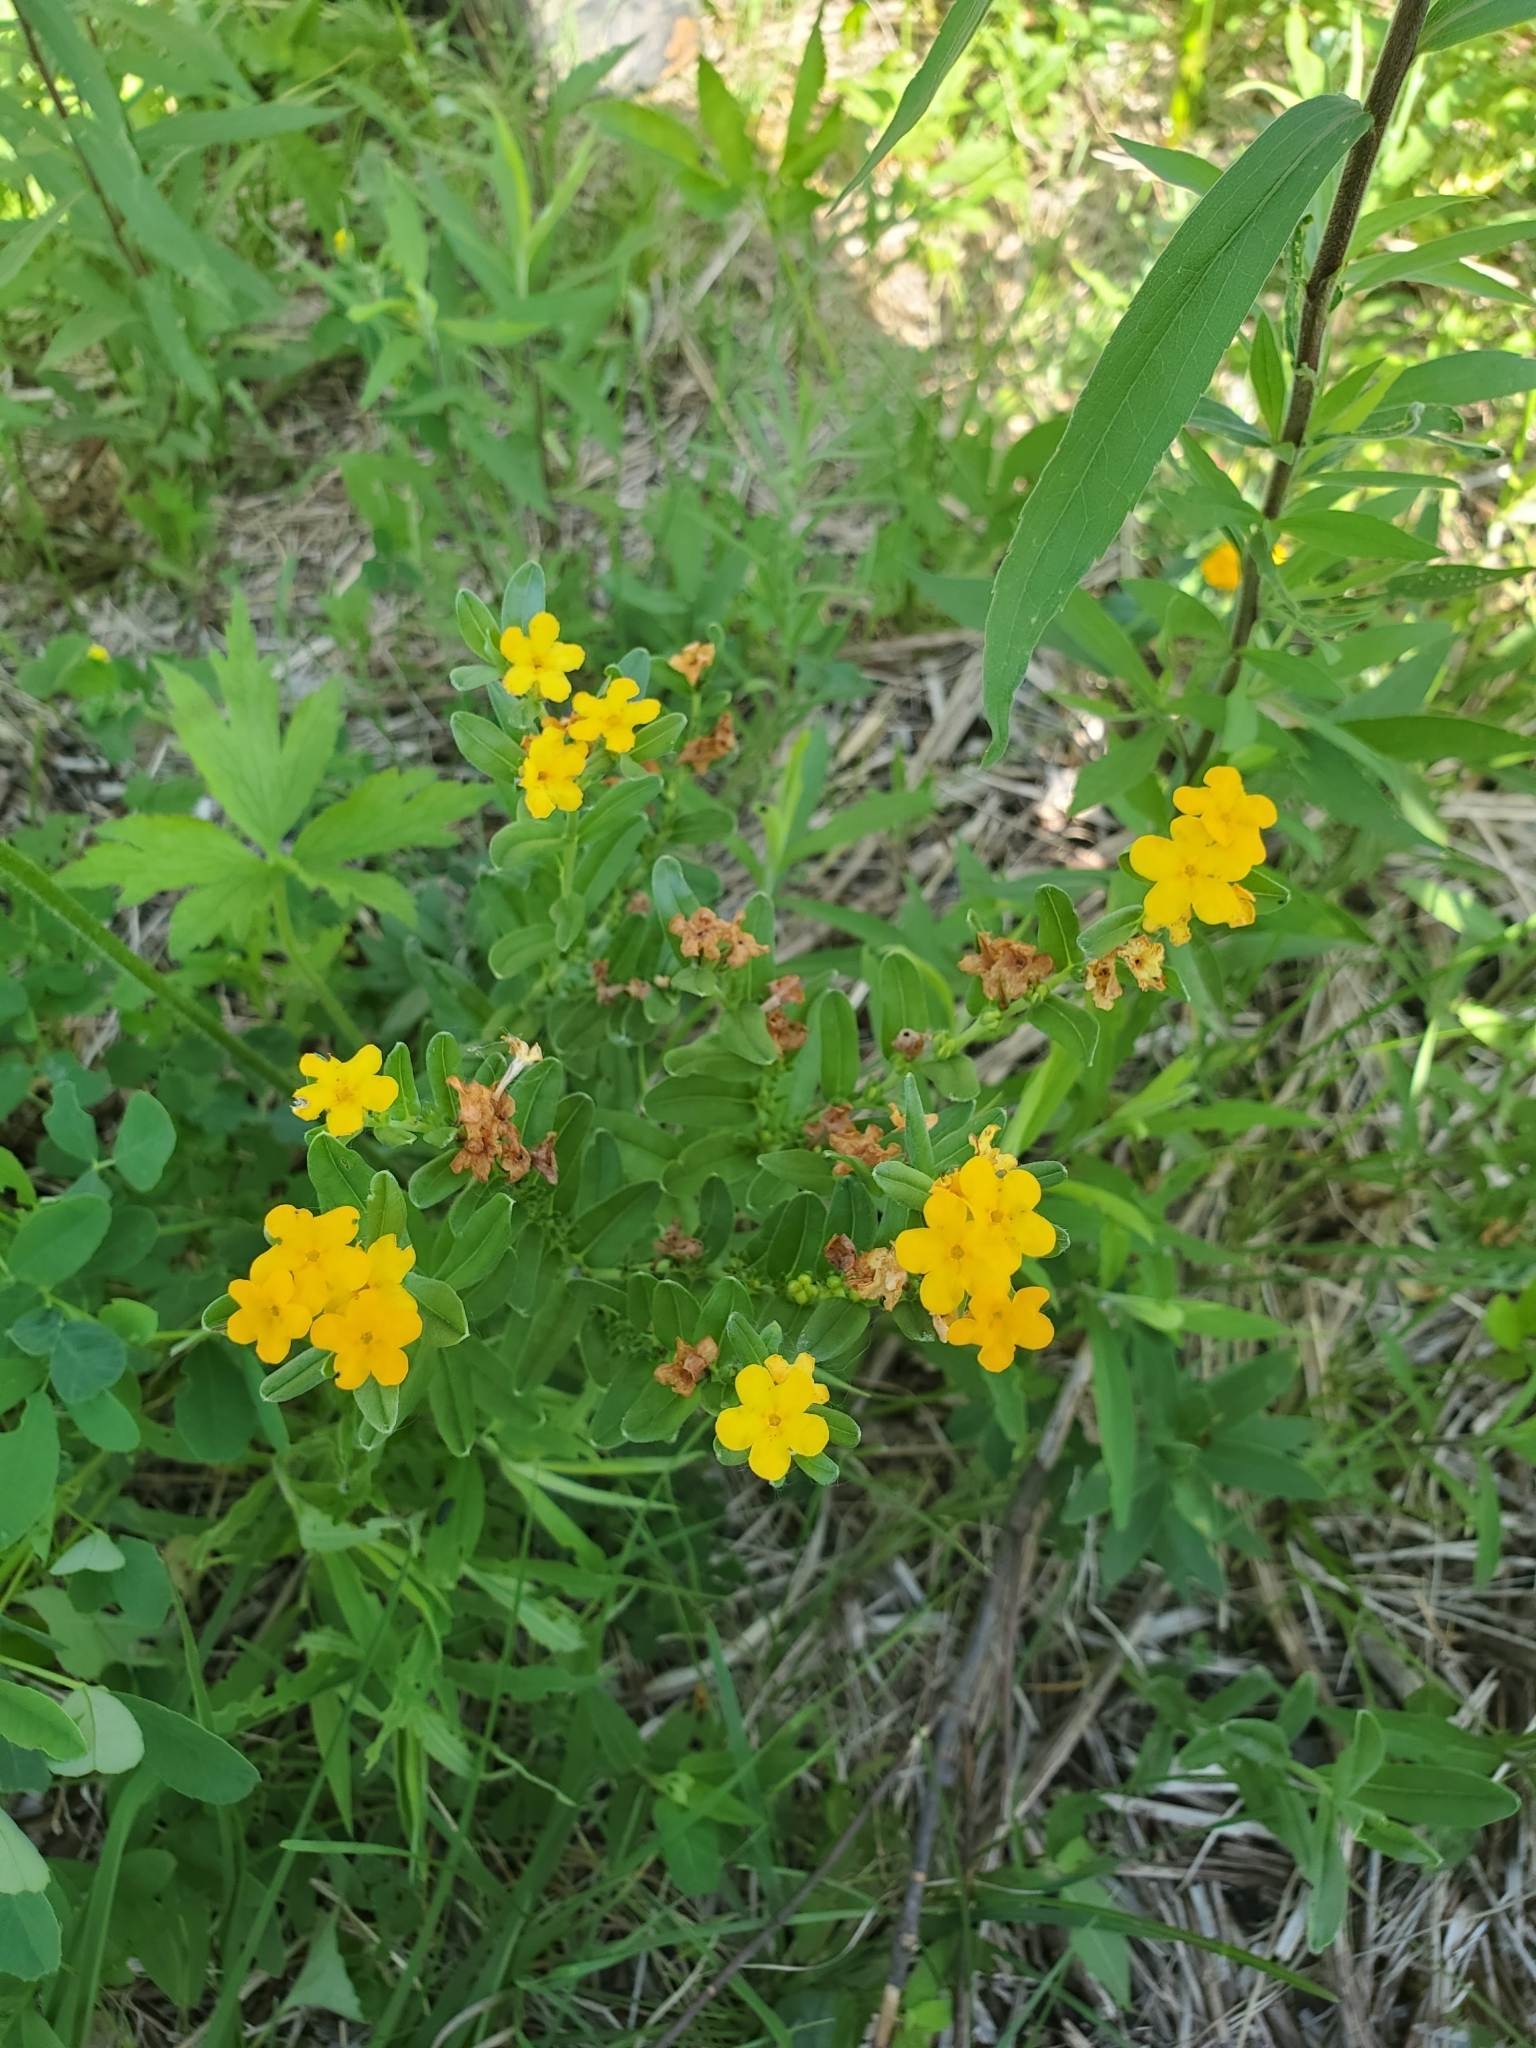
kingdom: Plantae
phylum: Tracheophyta
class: Magnoliopsida
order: Boraginales
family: Boraginaceae
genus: Lithospermum
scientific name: Lithospermum canescens
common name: Hoary puccoon
